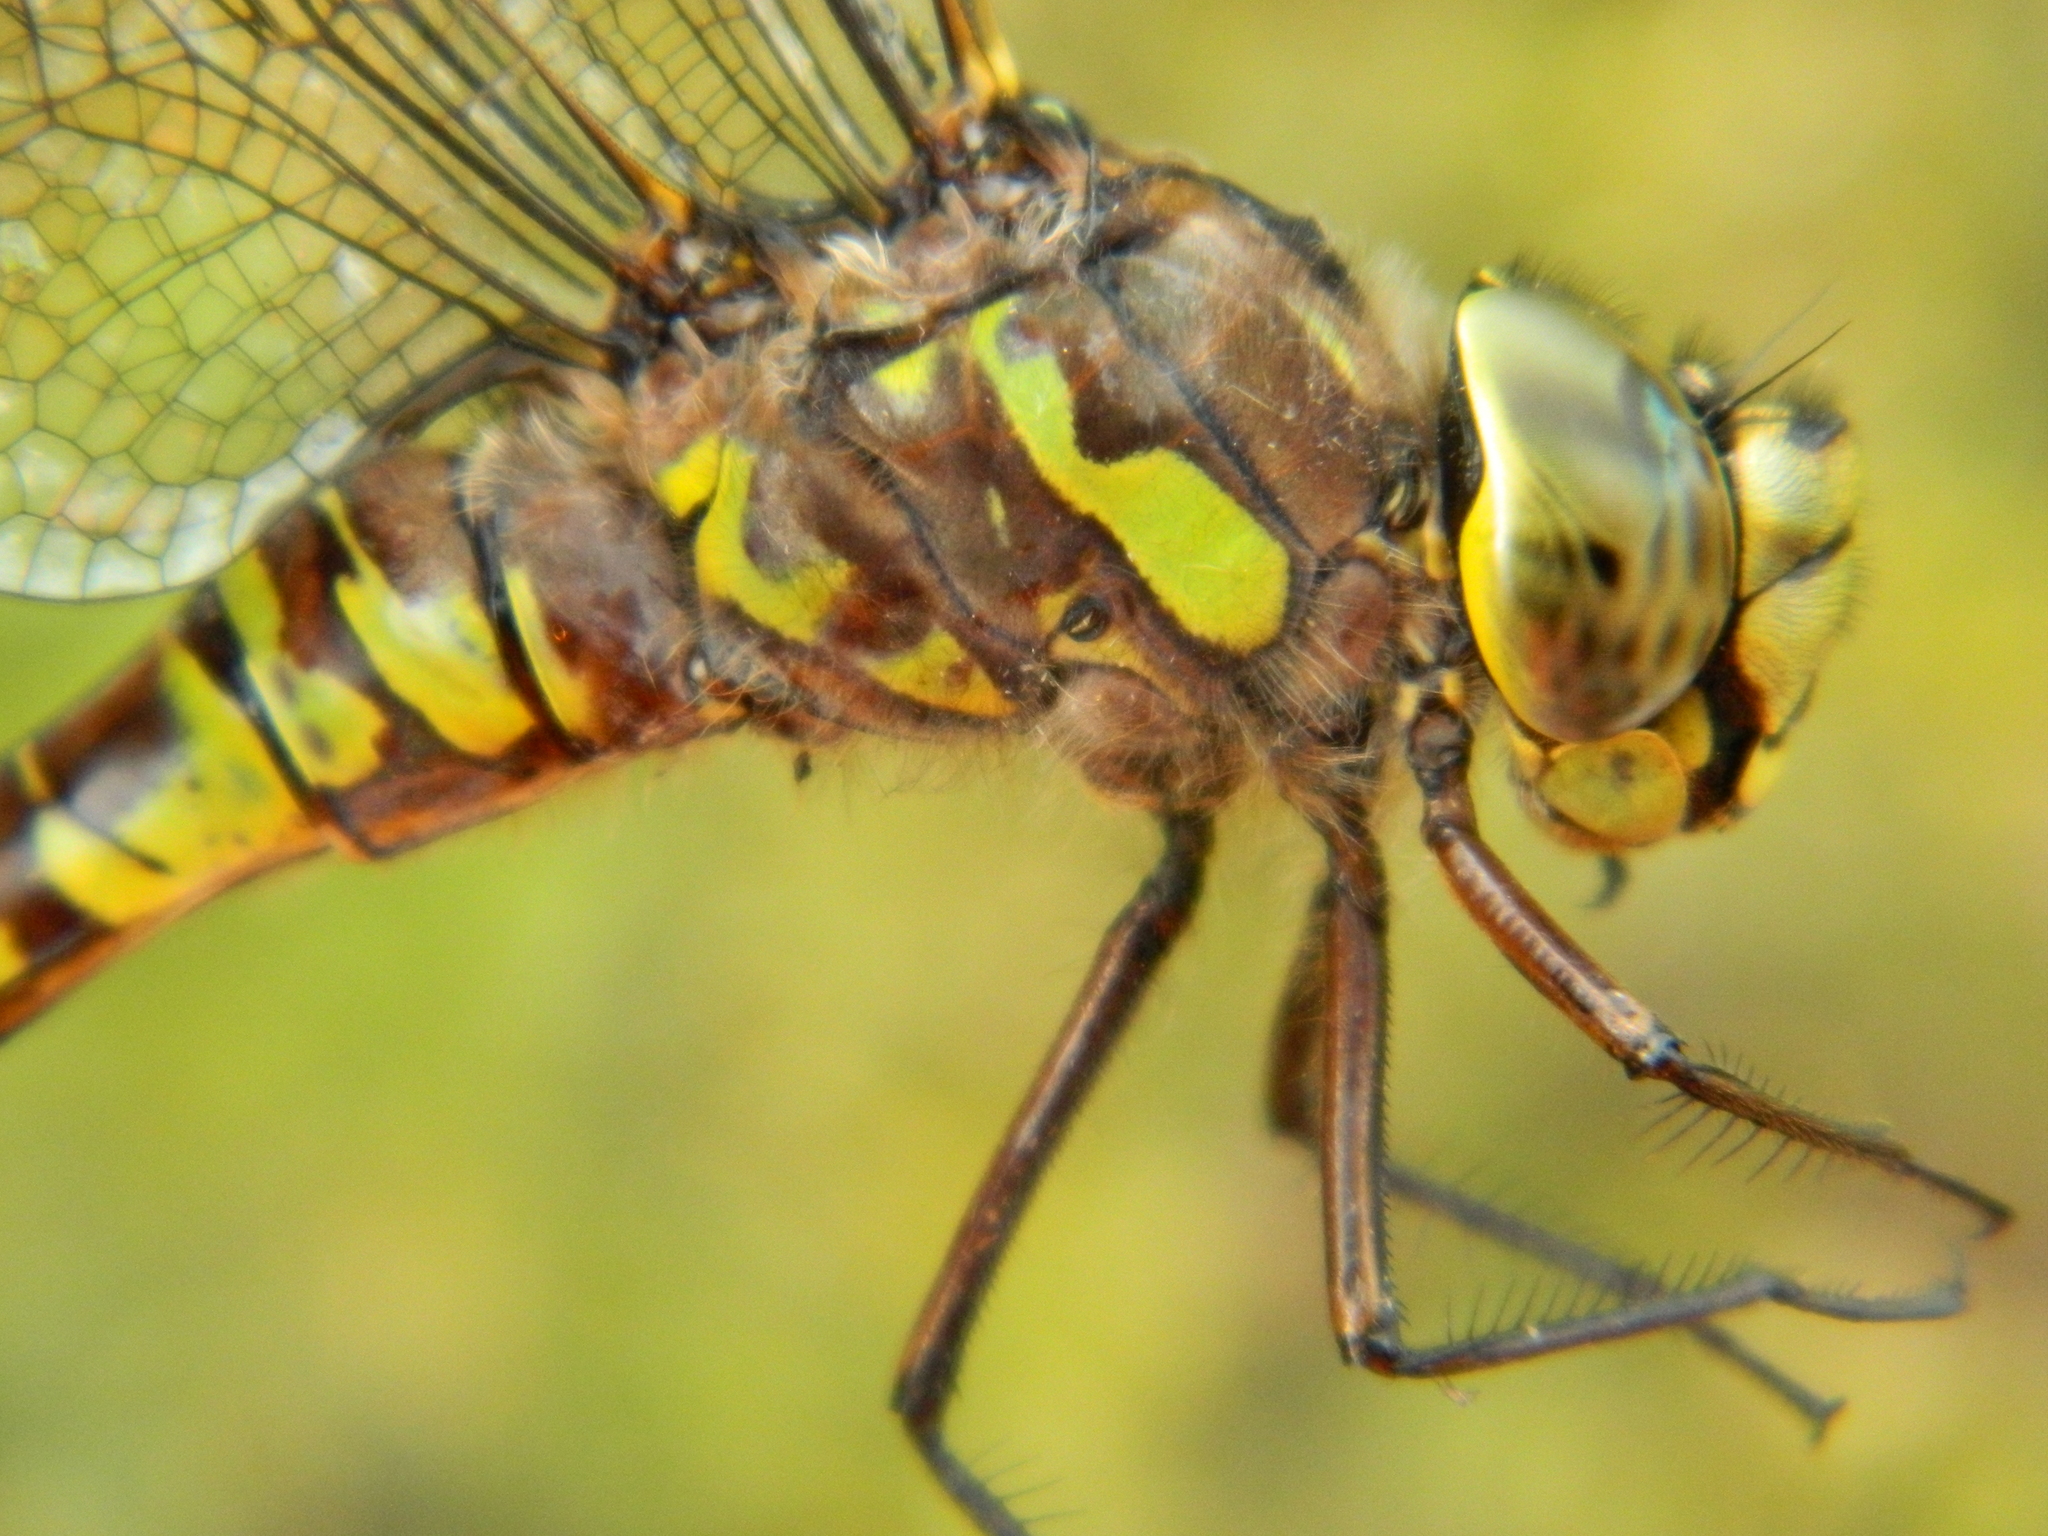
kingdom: Animalia
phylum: Arthropoda
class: Insecta
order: Odonata
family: Aeshnidae
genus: Aeshna
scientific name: Aeshna eremita
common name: Lake darner
